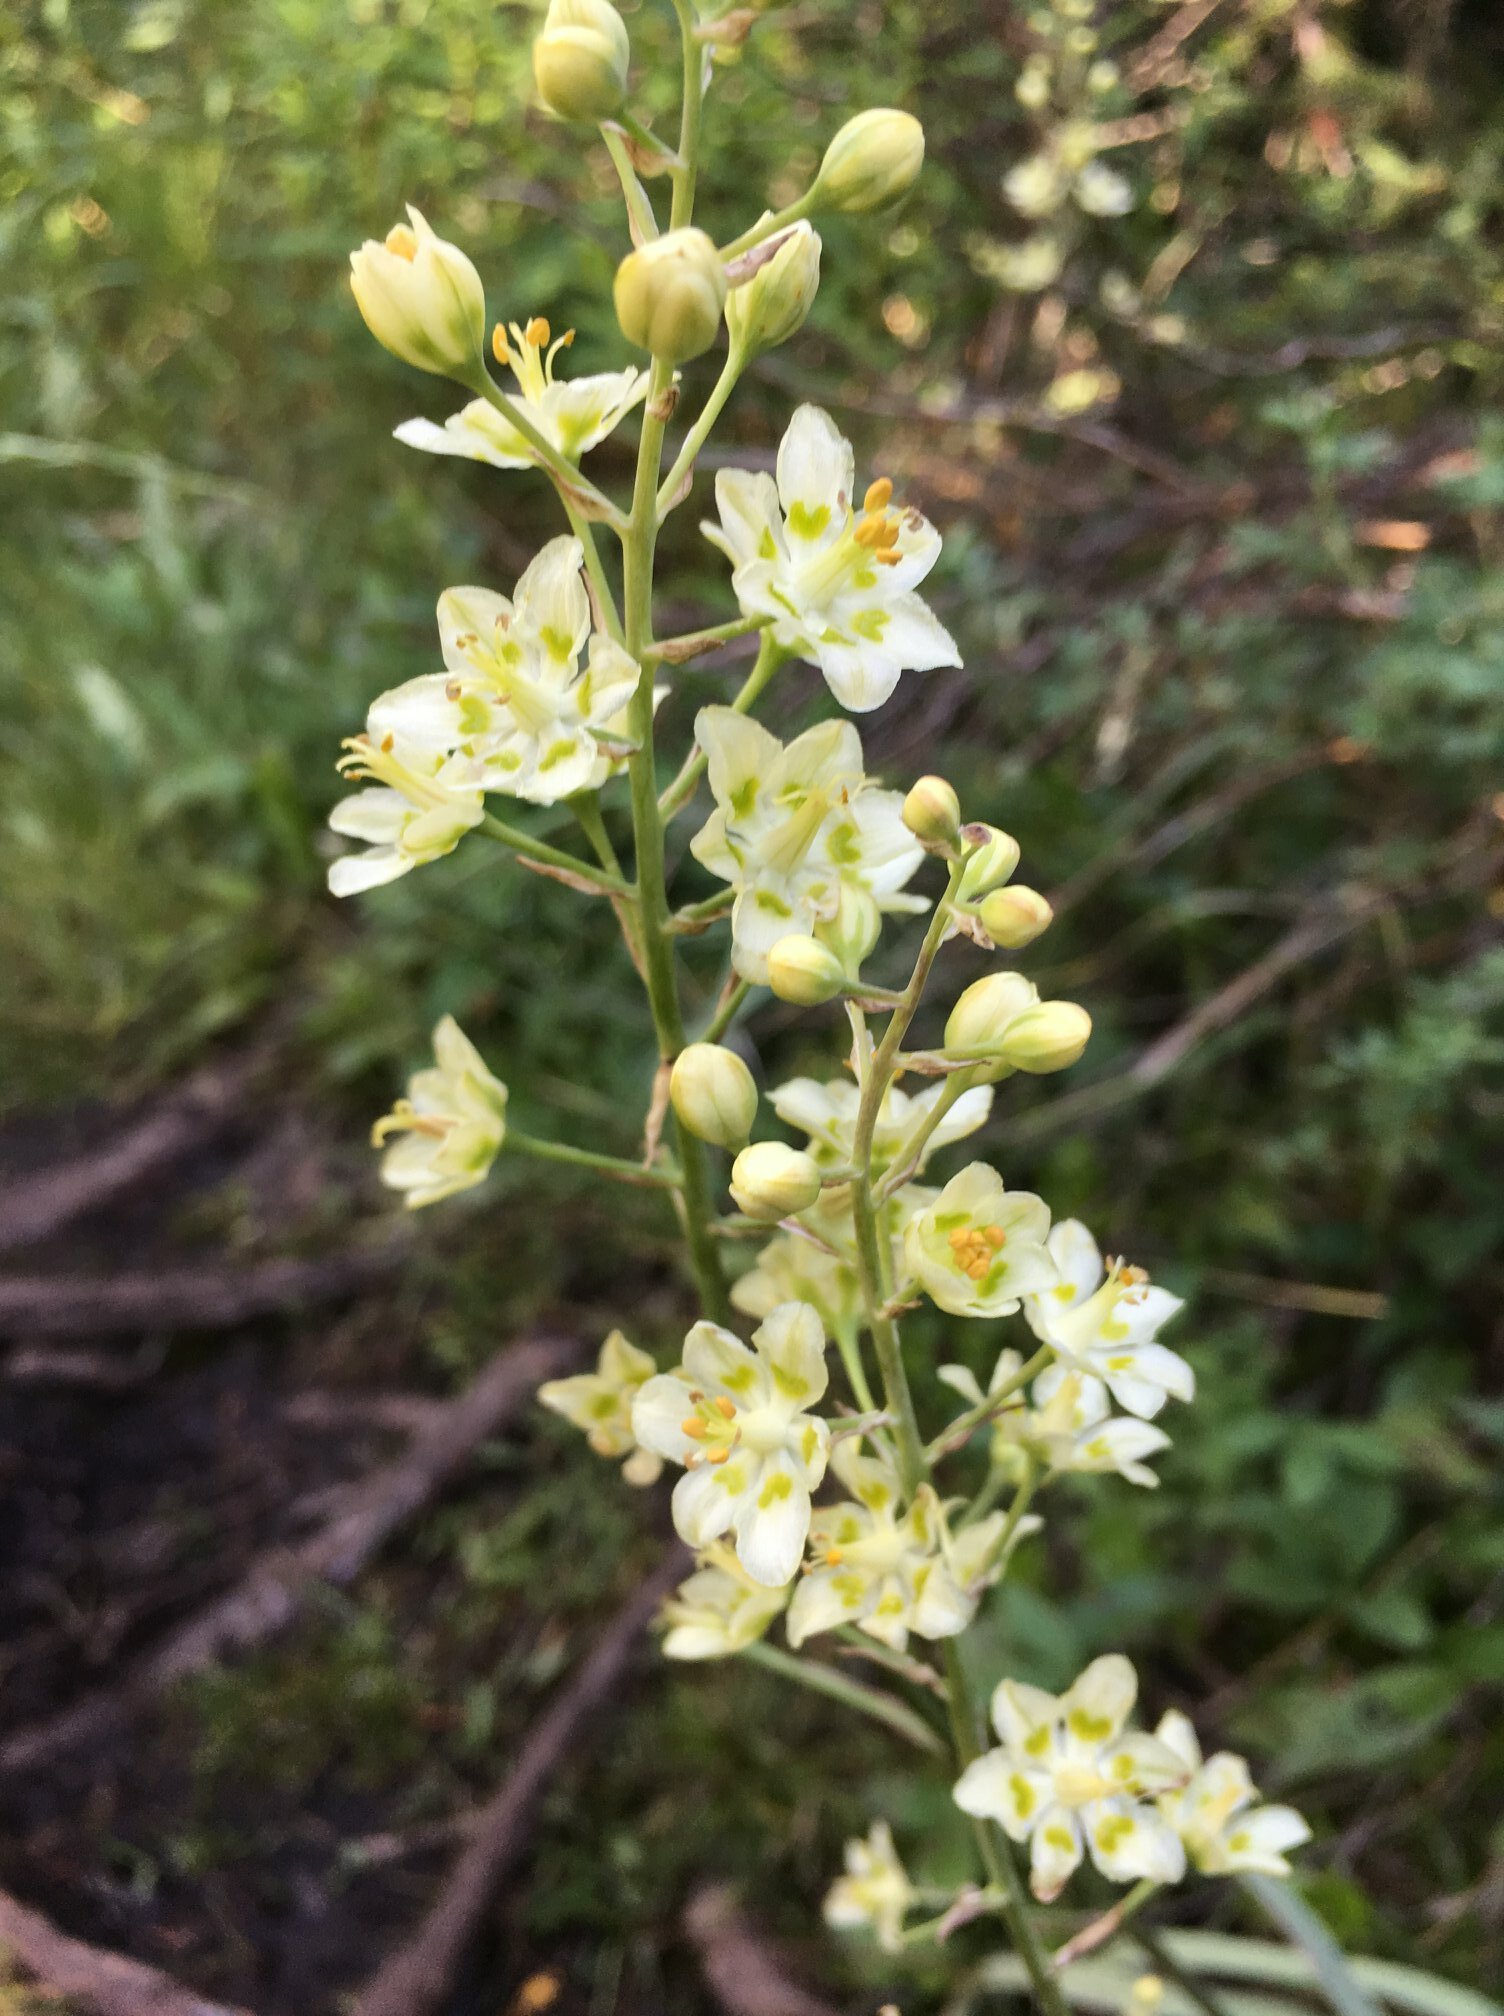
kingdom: Plantae
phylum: Tracheophyta
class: Liliopsida
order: Liliales
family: Melanthiaceae
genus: Anticlea
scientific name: Anticlea elegans
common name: Mountain death camas
